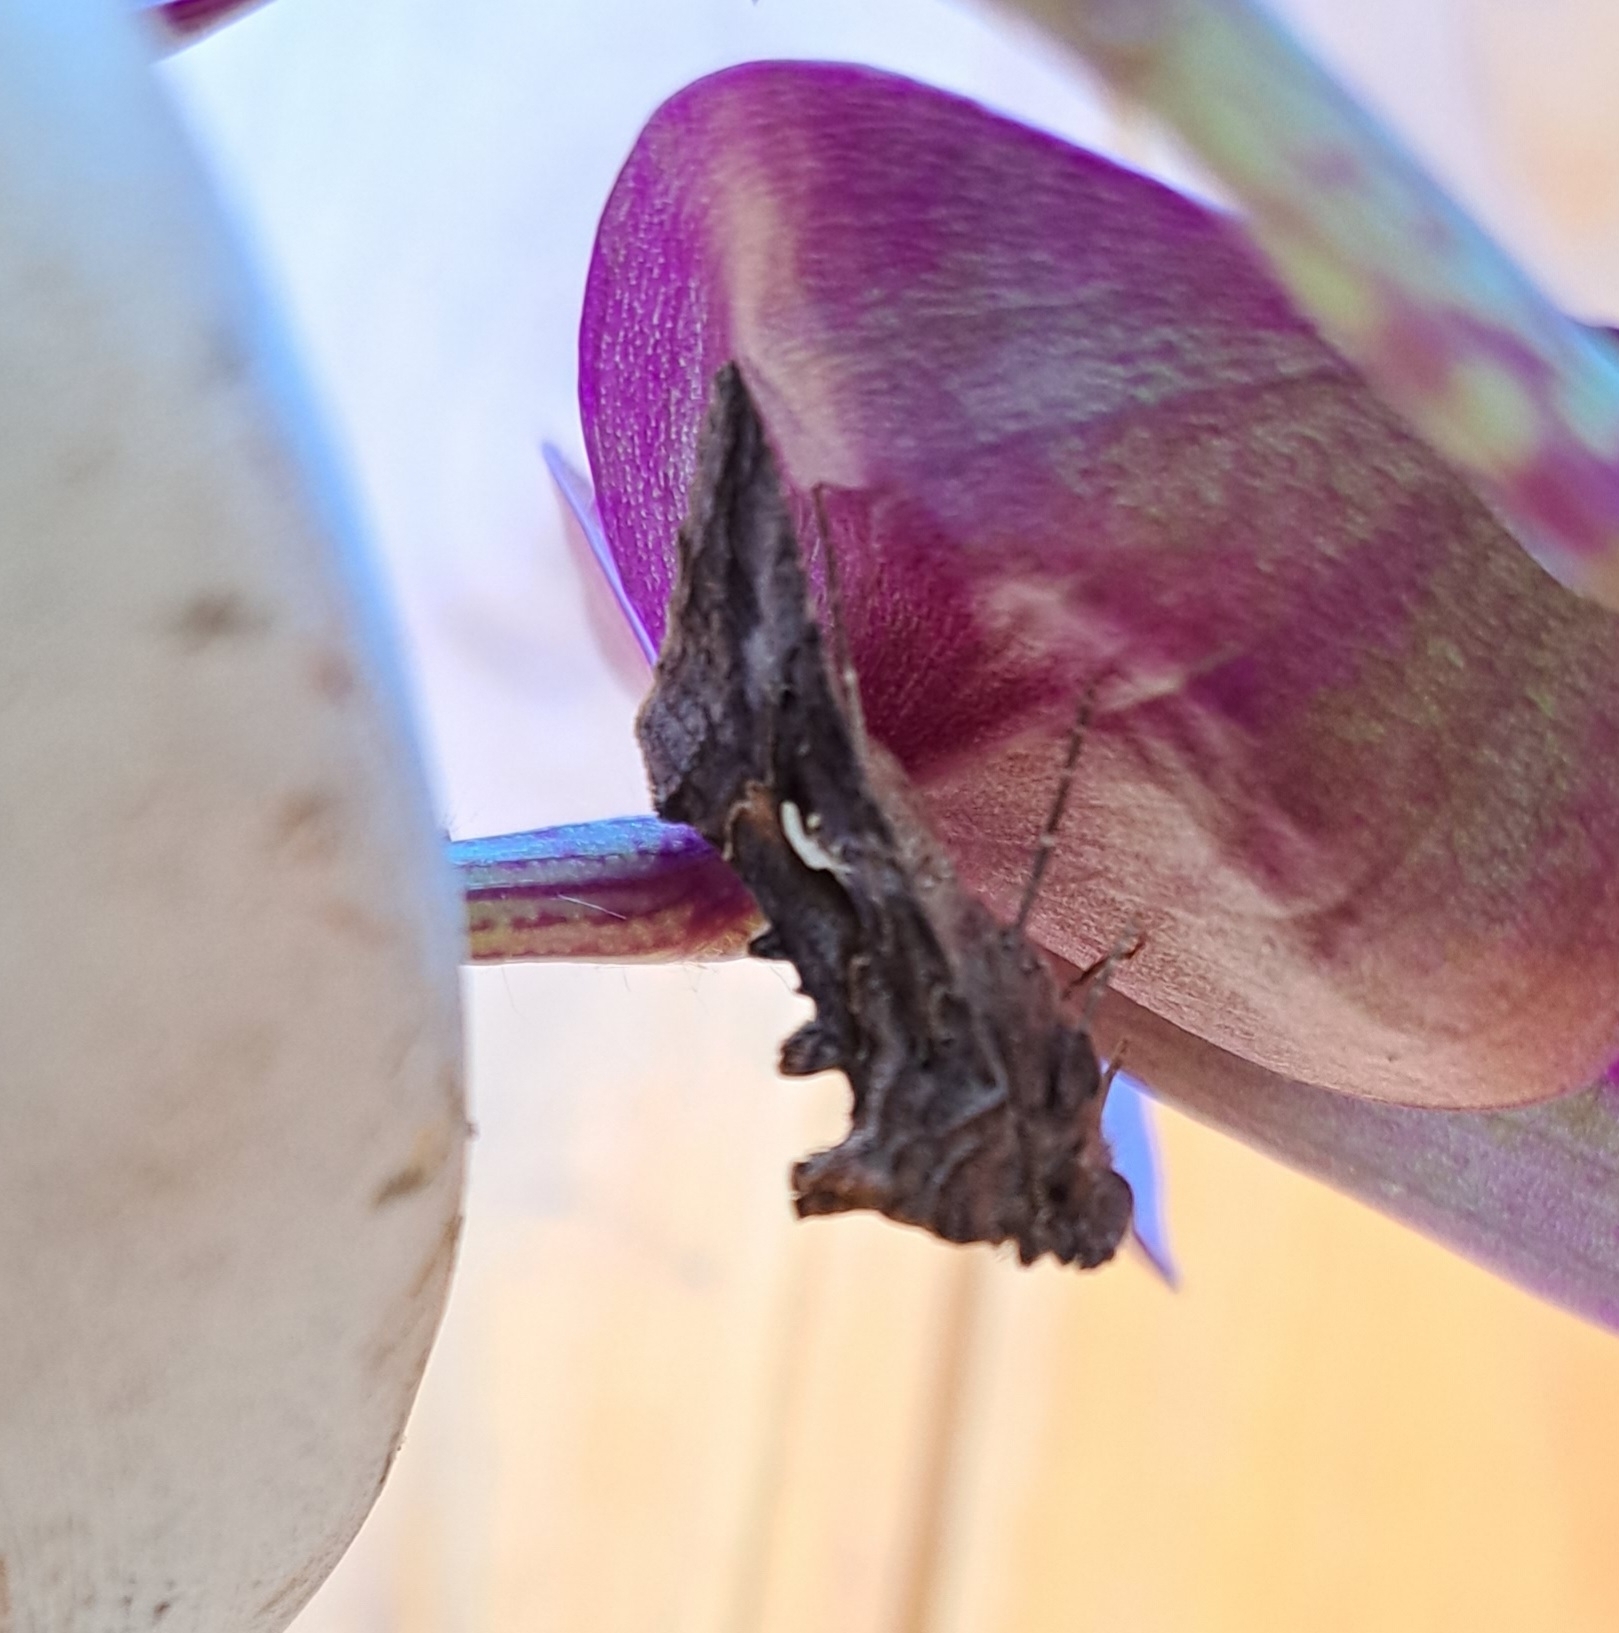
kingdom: Animalia
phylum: Arthropoda
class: Insecta
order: Lepidoptera
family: Noctuidae
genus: Autographa
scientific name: Autographa gamma
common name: Silver y
